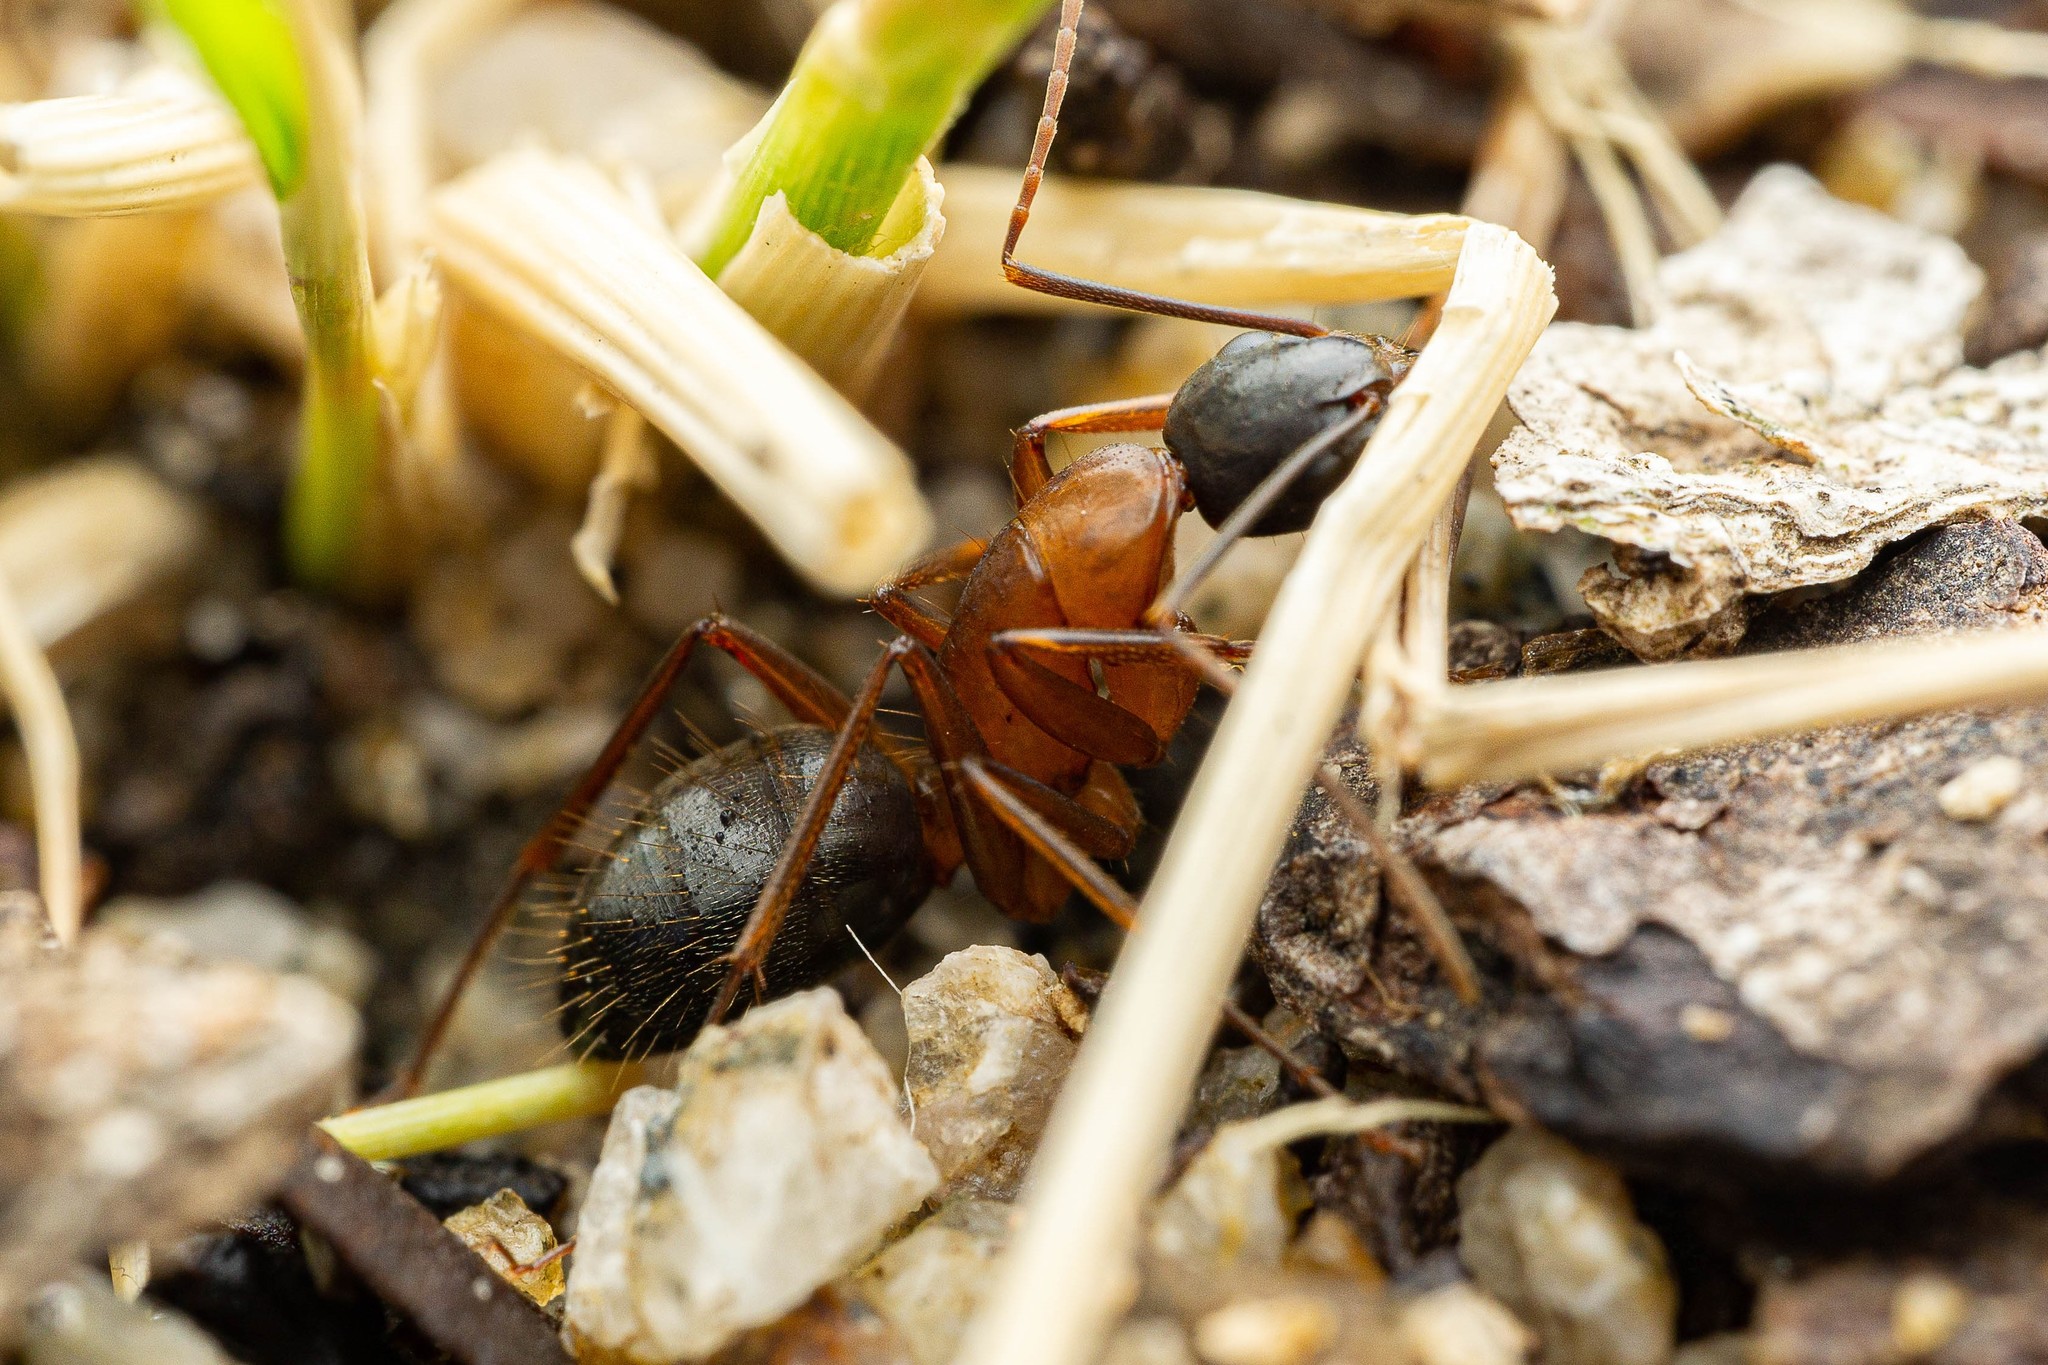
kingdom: Animalia
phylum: Arthropoda
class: Insecta
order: Hymenoptera
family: Formicidae
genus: Camponotus
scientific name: Camponotus semitestaceus
